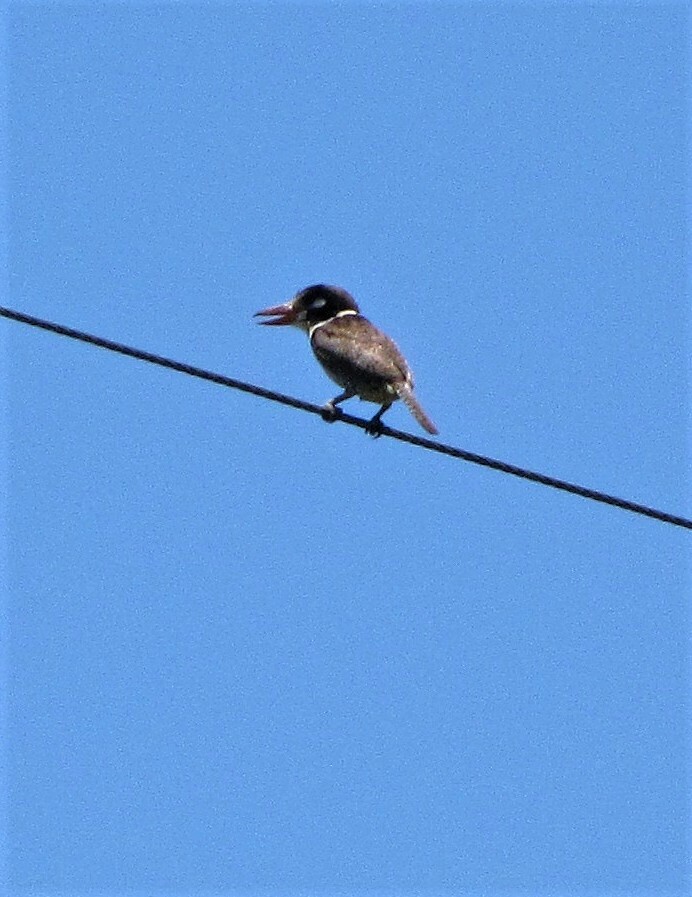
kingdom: Animalia
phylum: Chordata
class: Aves
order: Piciformes
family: Bucconidae
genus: Nystalus
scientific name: Nystalus chacuru
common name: White-eared puffbird
